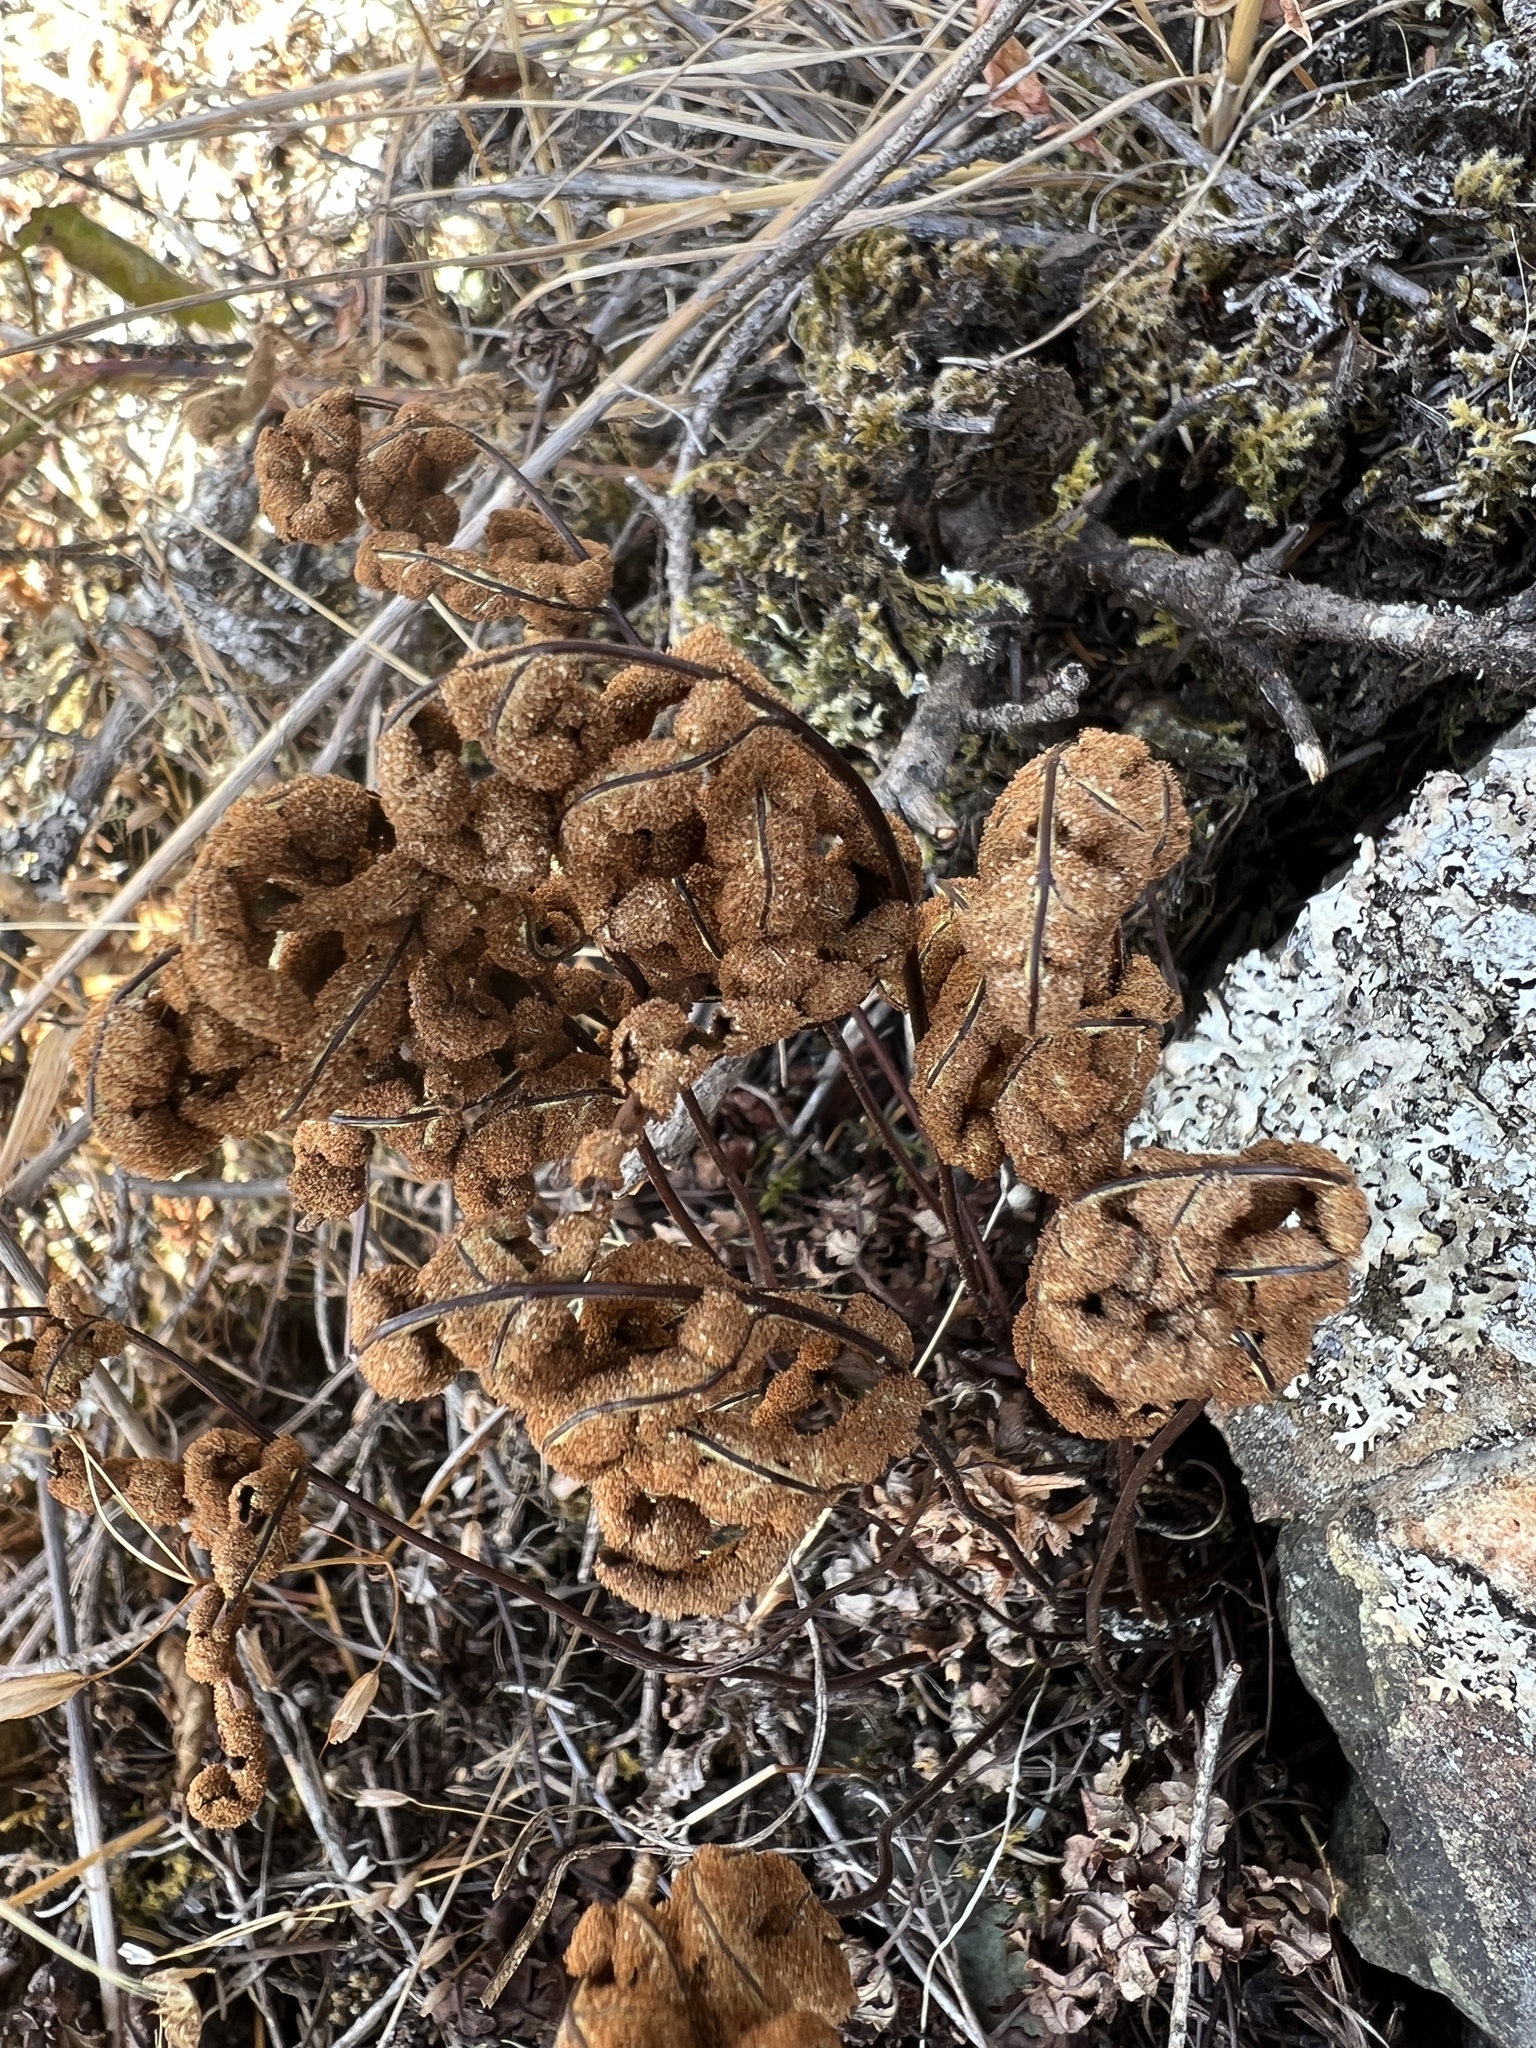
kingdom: Plantae
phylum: Tracheophyta
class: Polypodiopsida
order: Polypodiales
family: Pteridaceae
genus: Pentagramma
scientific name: Pentagramma triangularis
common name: Gold fern
